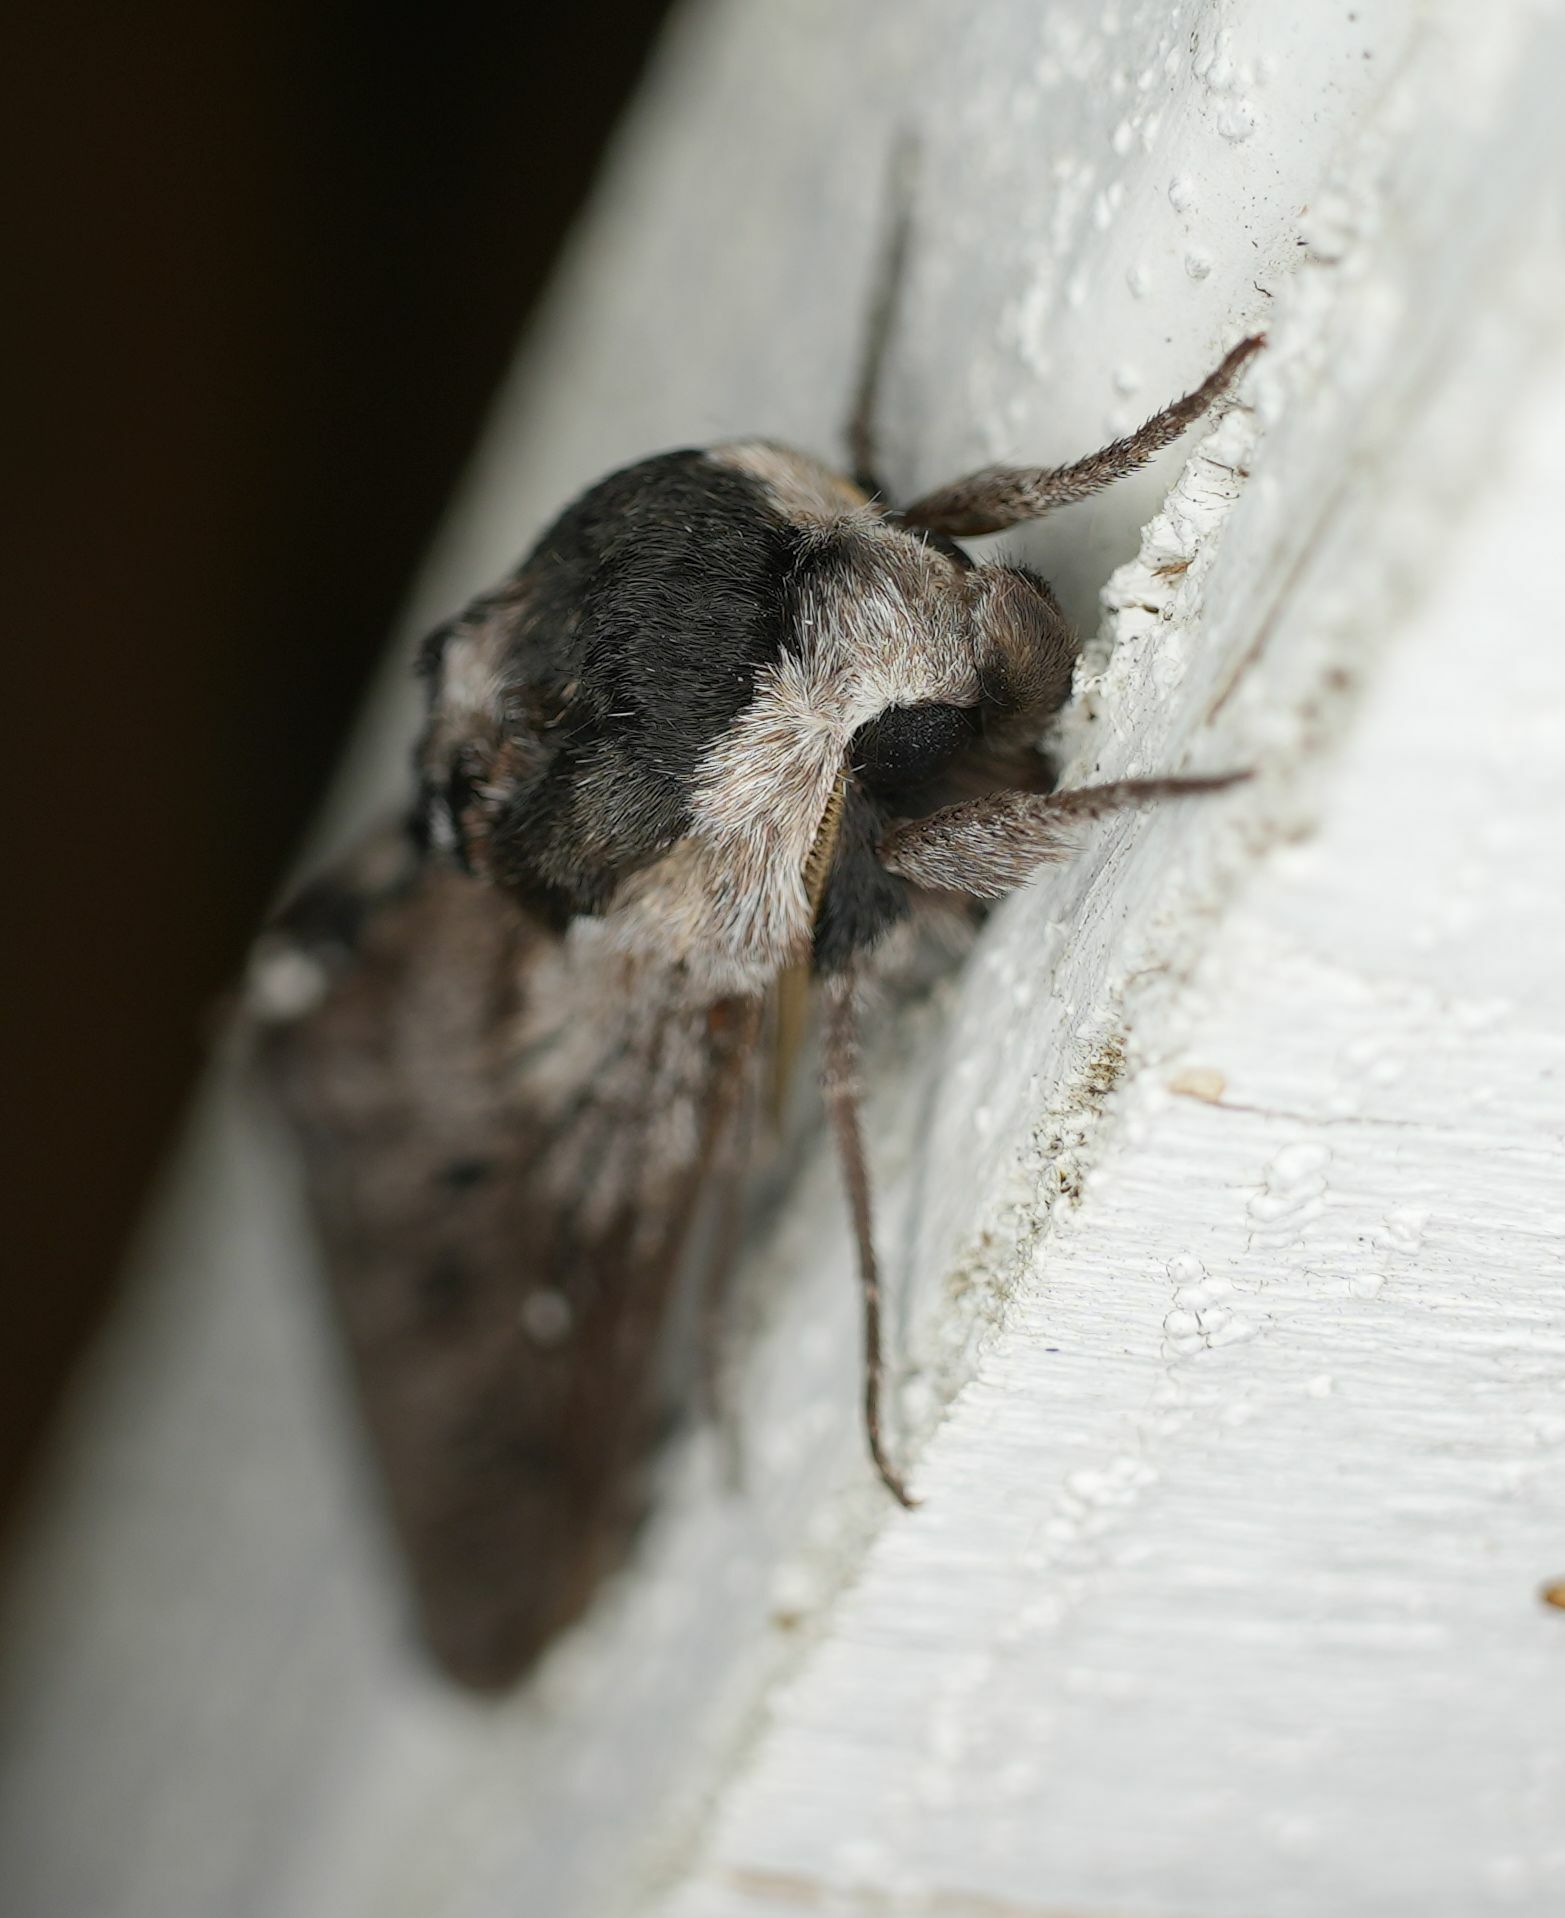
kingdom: Animalia
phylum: Arthropoda
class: Insecta
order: Lepidoptera
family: Sphingidae
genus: Sphinx
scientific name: Sphinx poecila
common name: Northern apple sphinx
